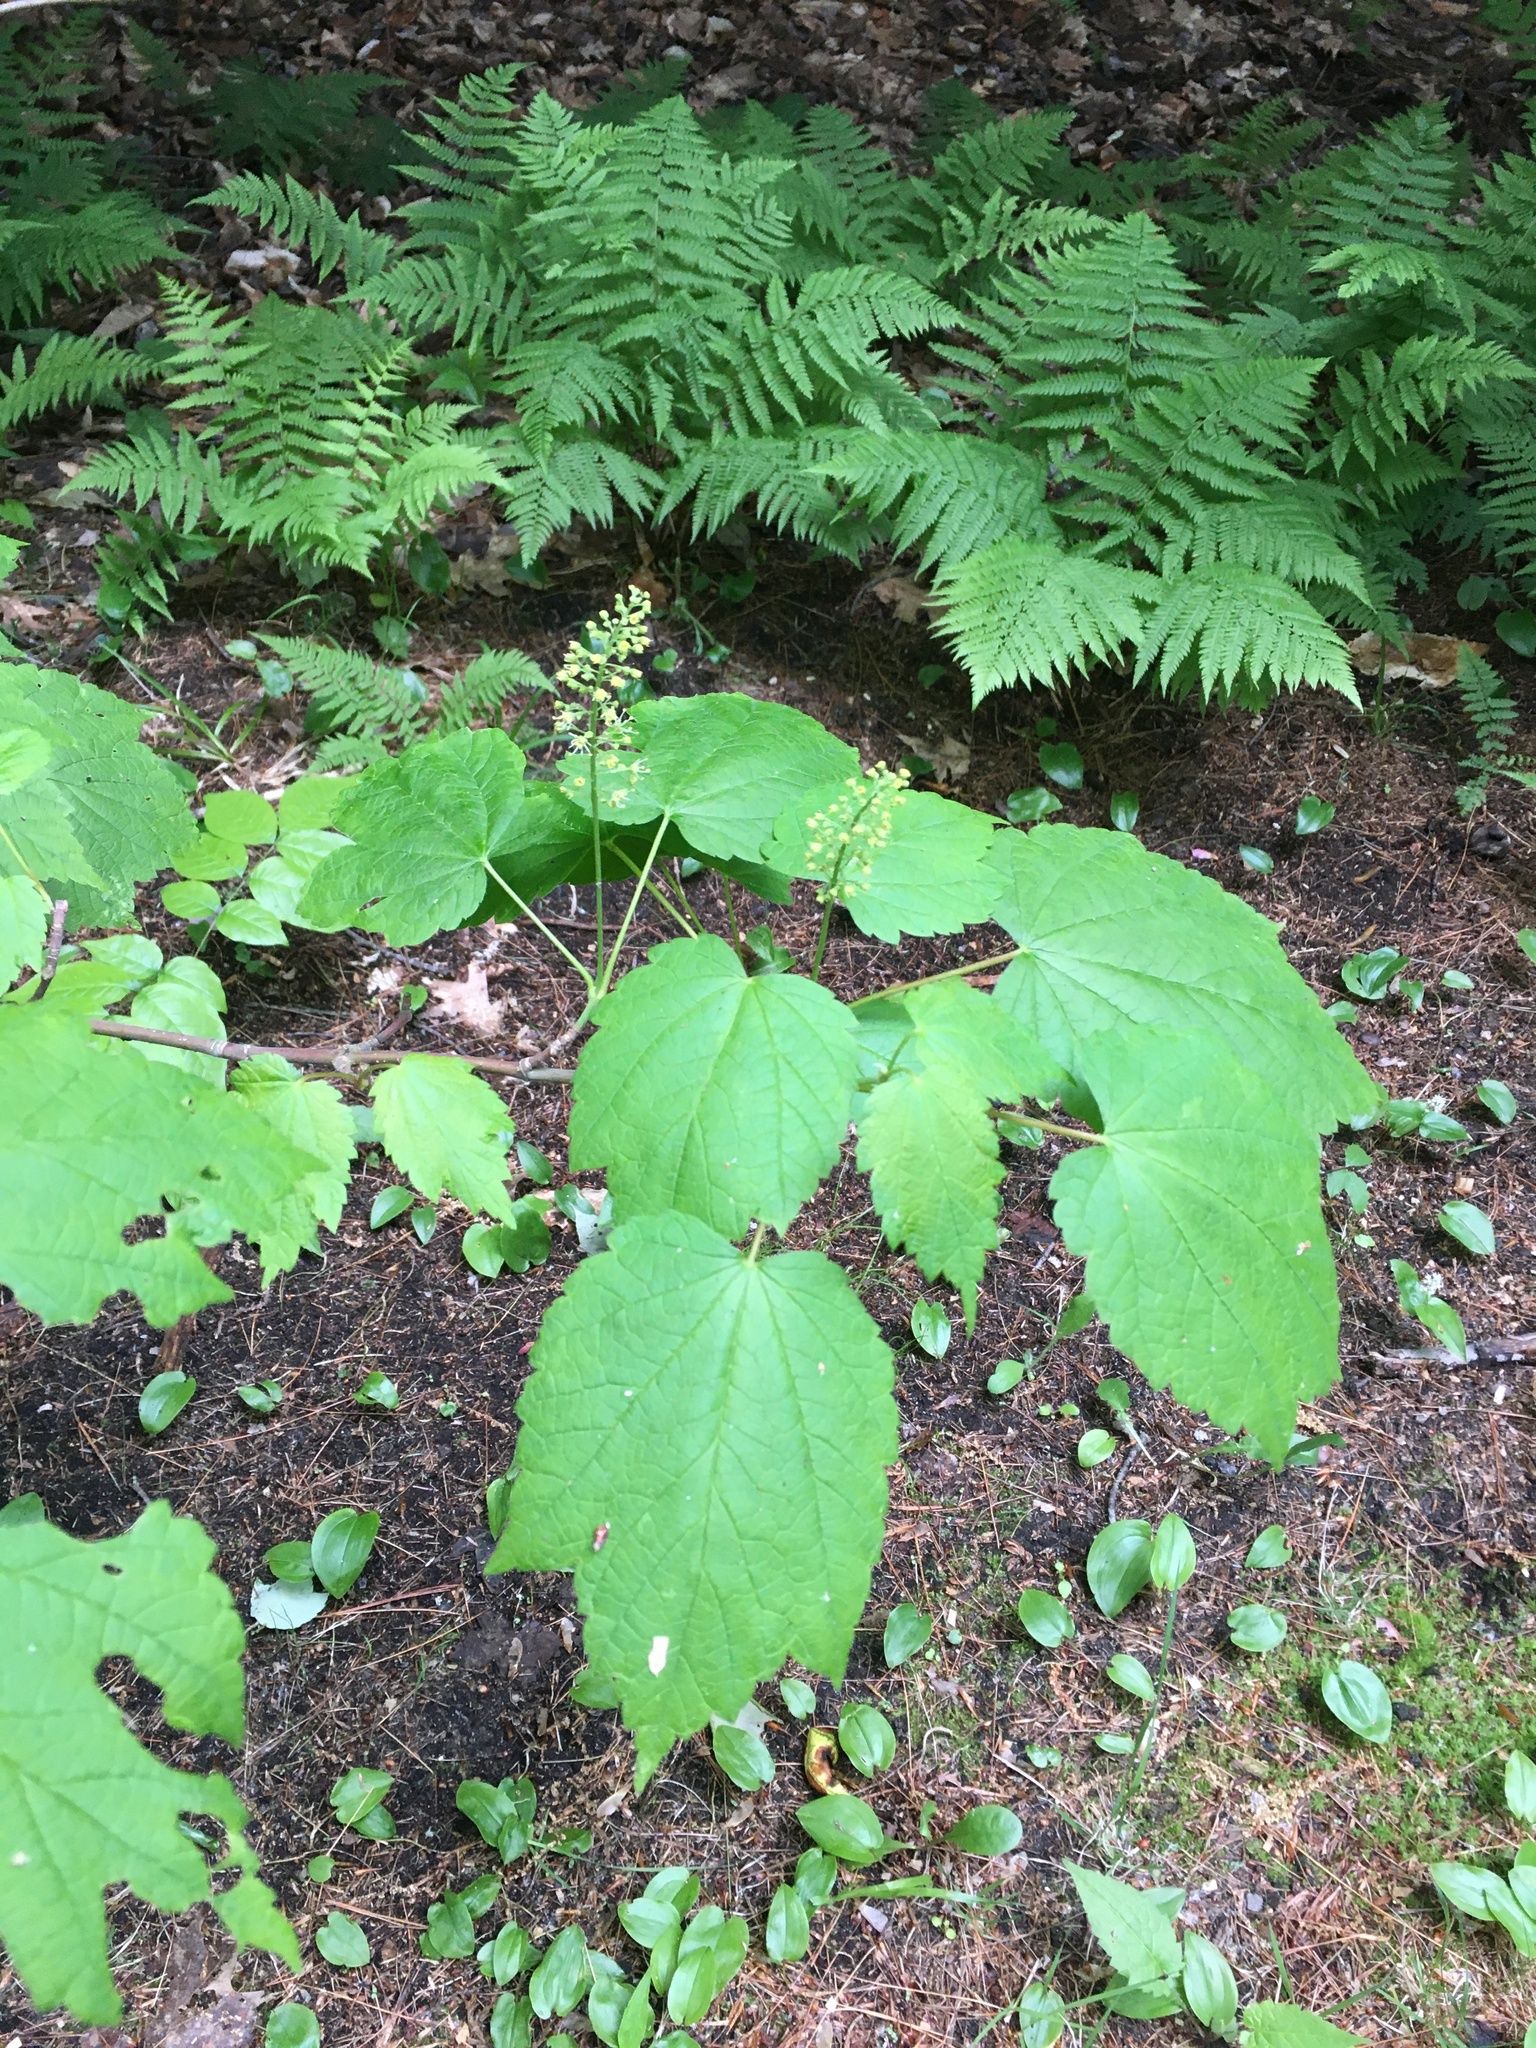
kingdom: Plantae
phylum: Tracheophyta
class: Magnoliopsida
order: Sapindales
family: Sapindaceae
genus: Acer
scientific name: Acer spicatum
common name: Mountain maple
